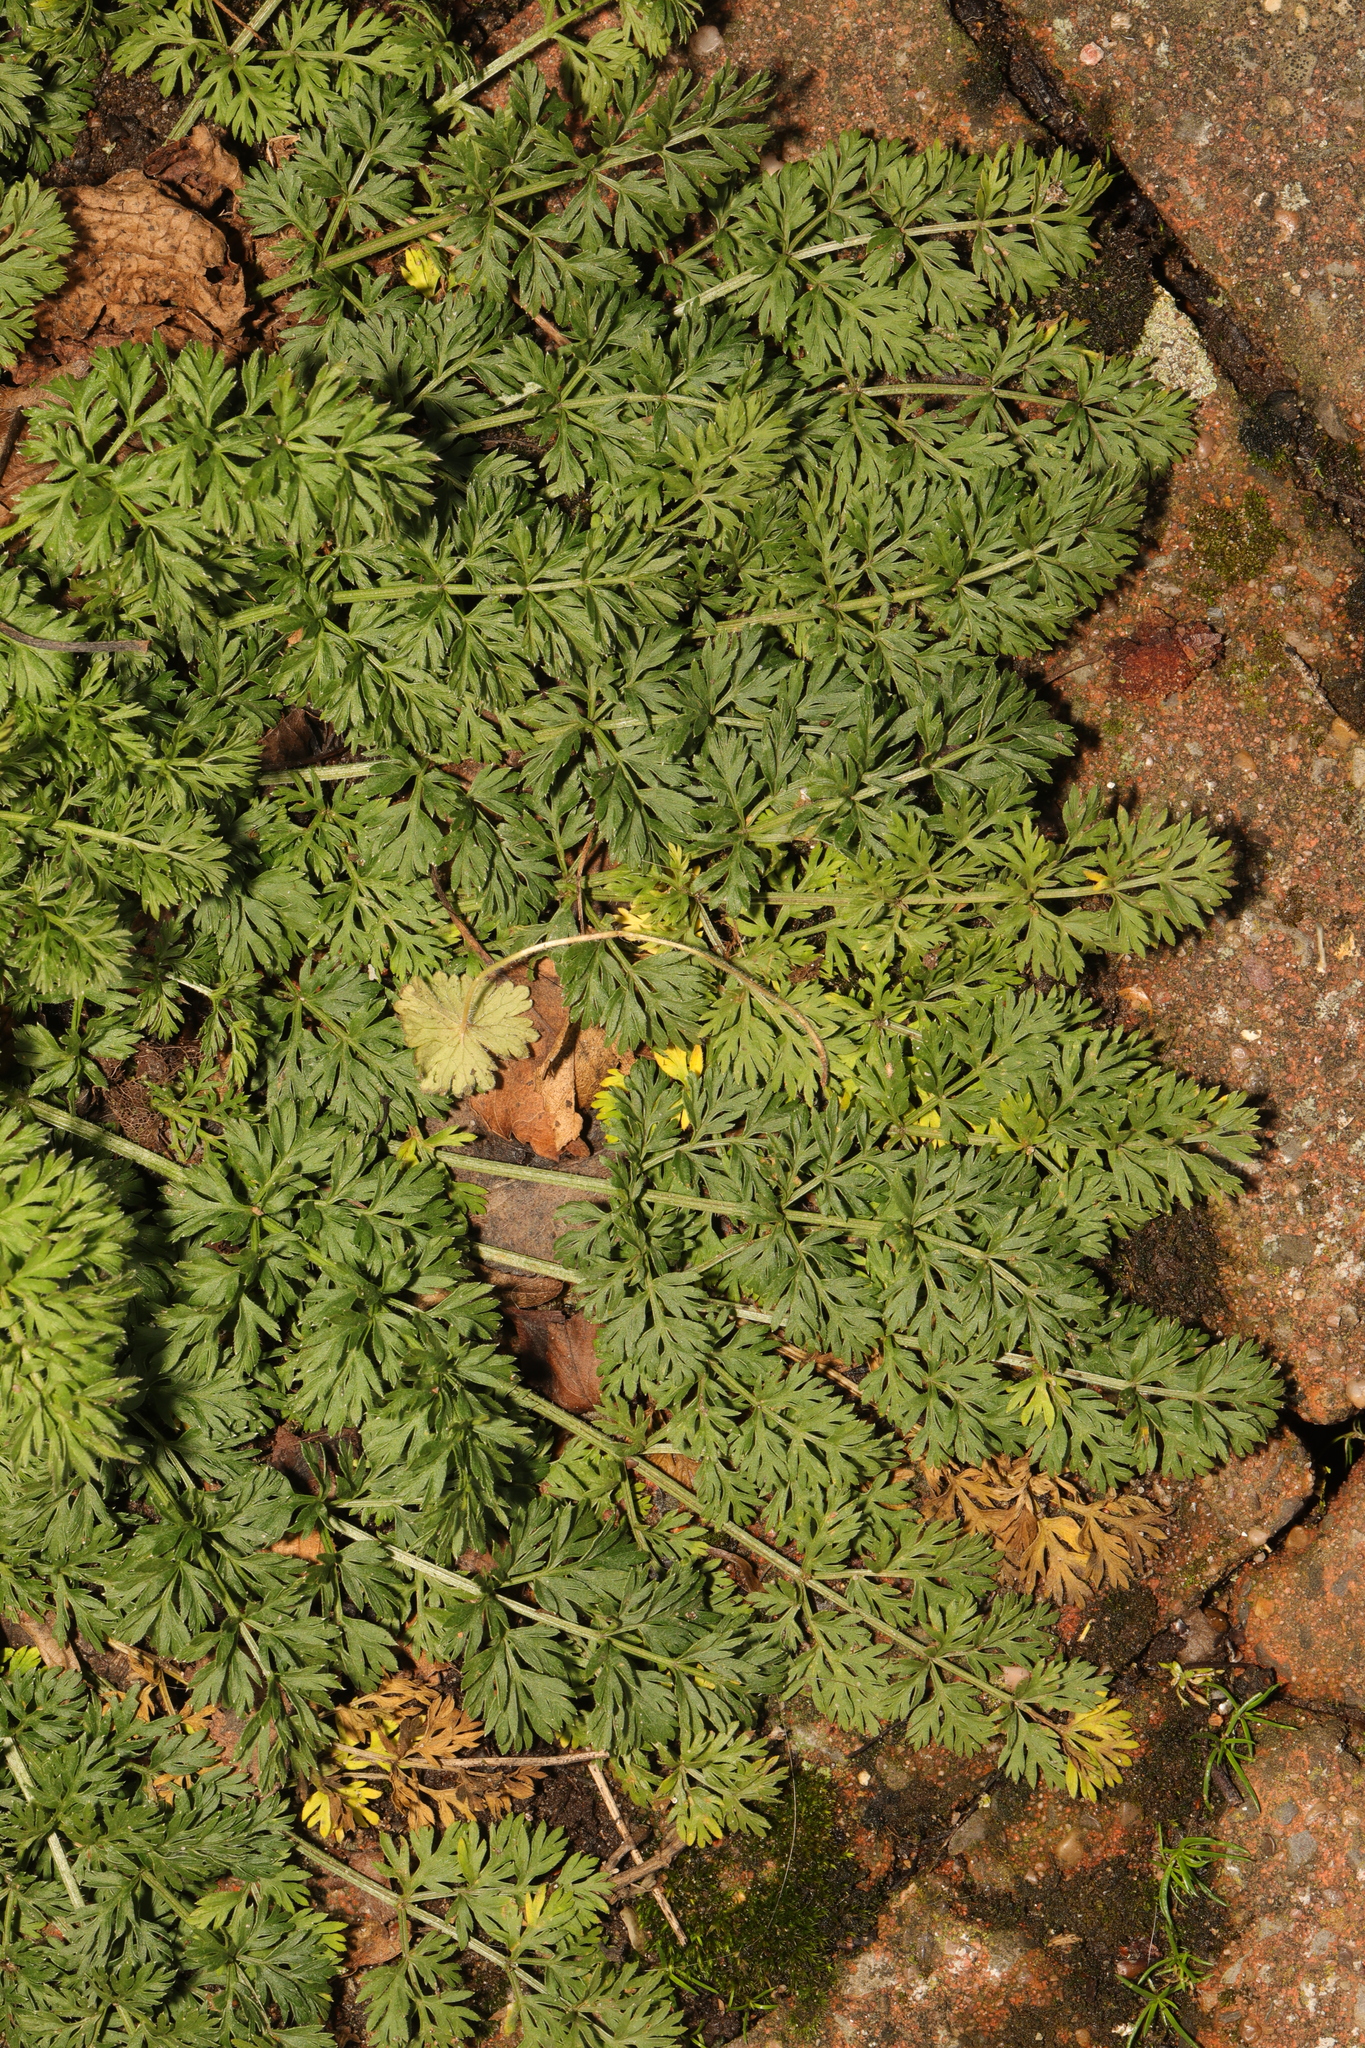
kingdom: Plantae
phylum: Tracheophyta
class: Magnoliopsida
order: Apiales
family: Apiaceae
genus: Daucus
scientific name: Daucus carota
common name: Wild carrot
